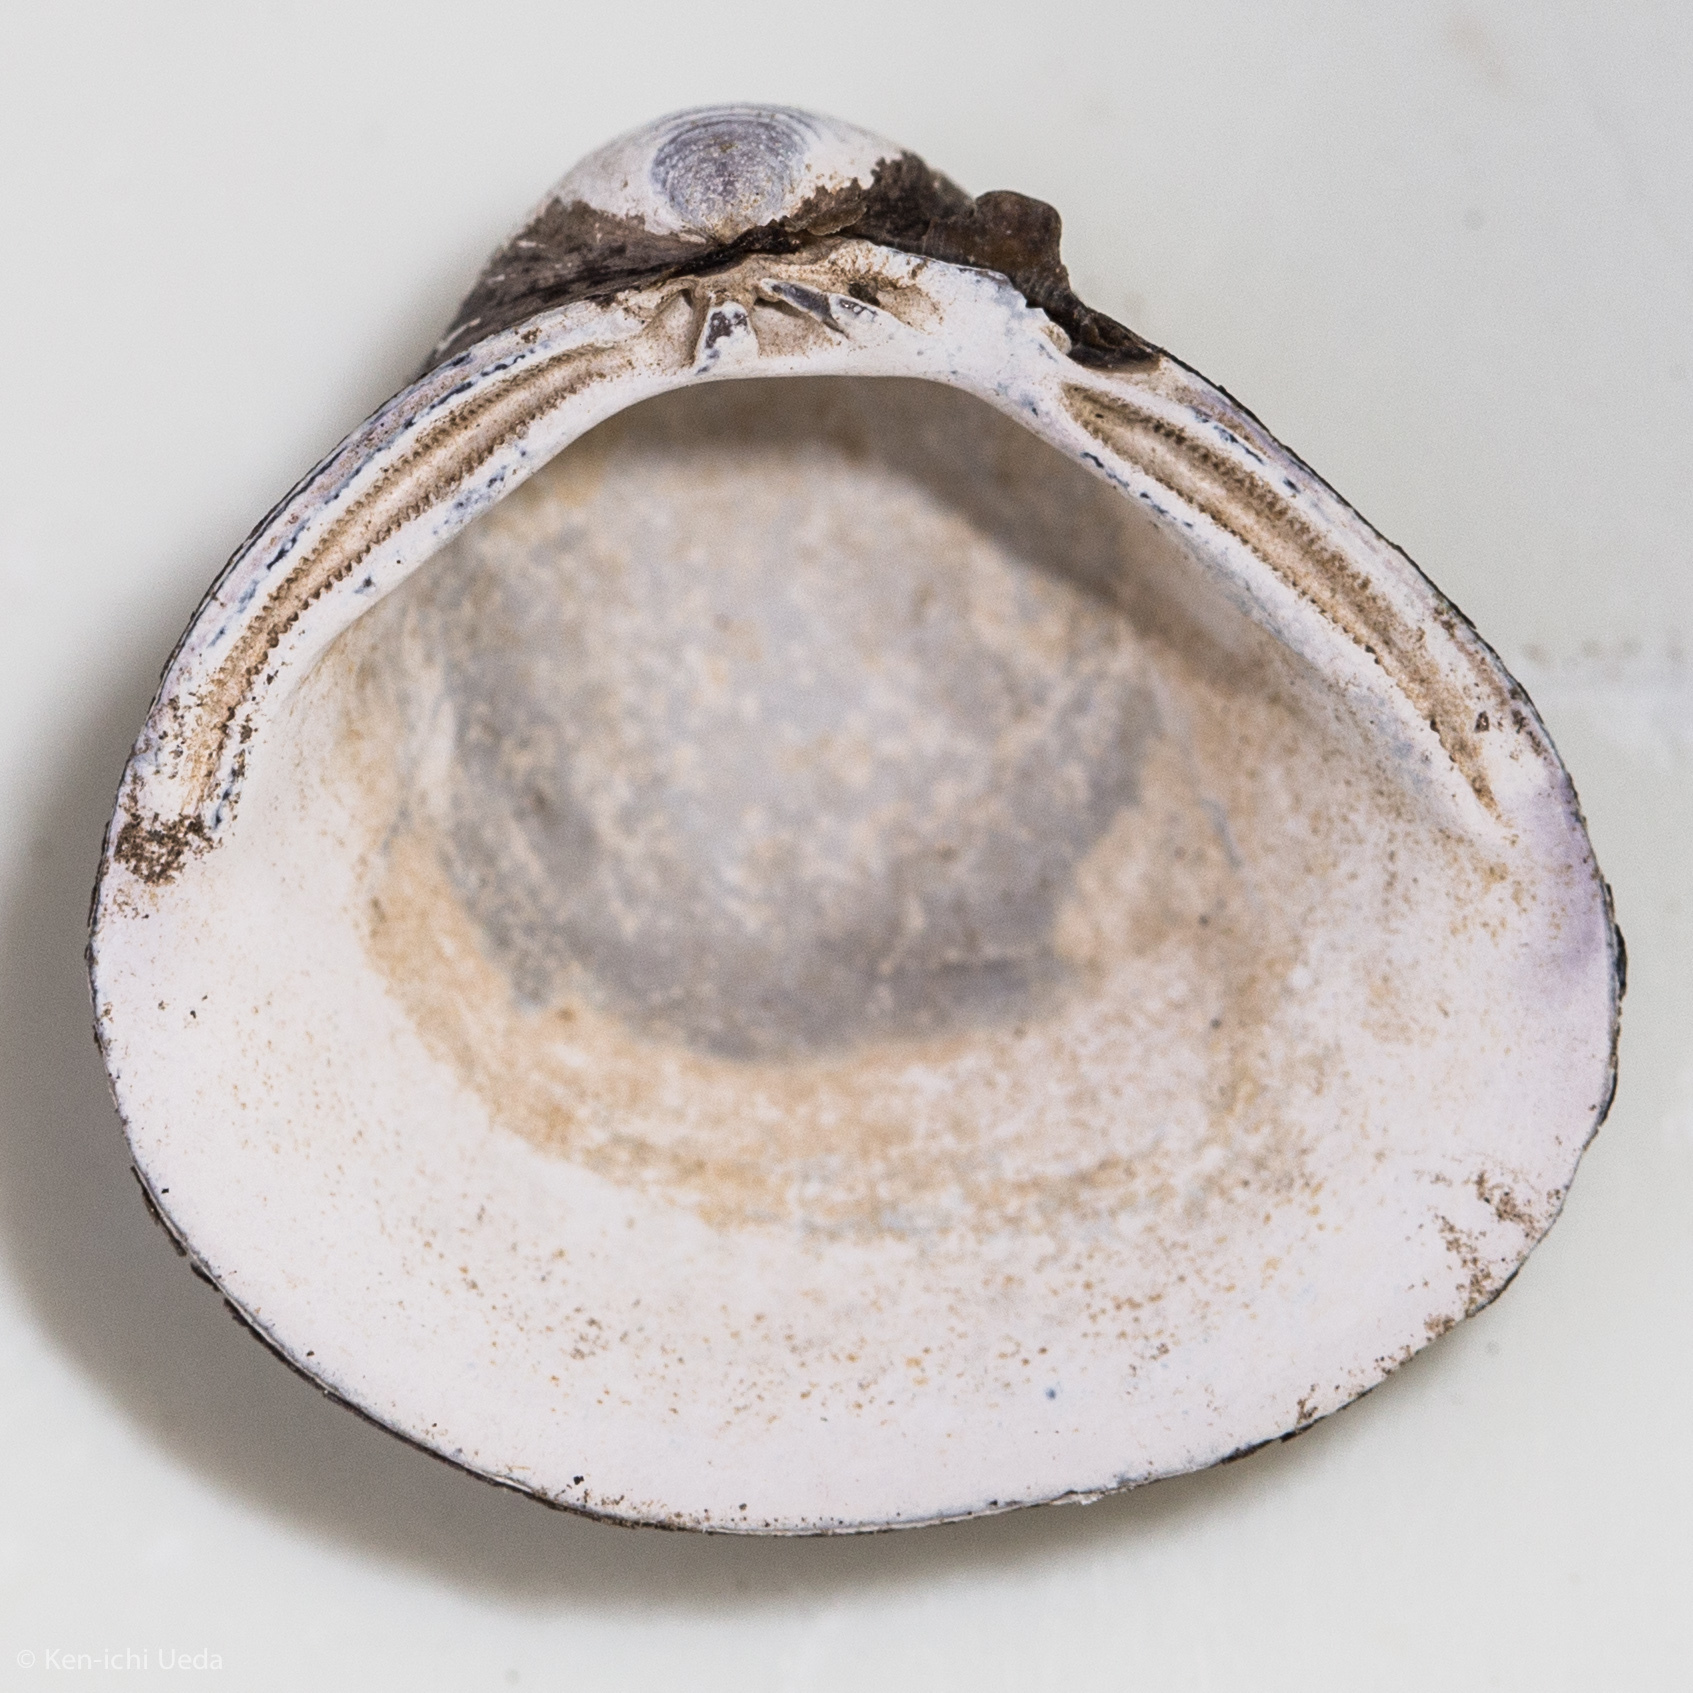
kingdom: Animalia
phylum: Mollusca
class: Bivalvia
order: Venerida
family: Cyrenidae
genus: Corbicula
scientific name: Corbicula fluminea
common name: Asian clam
